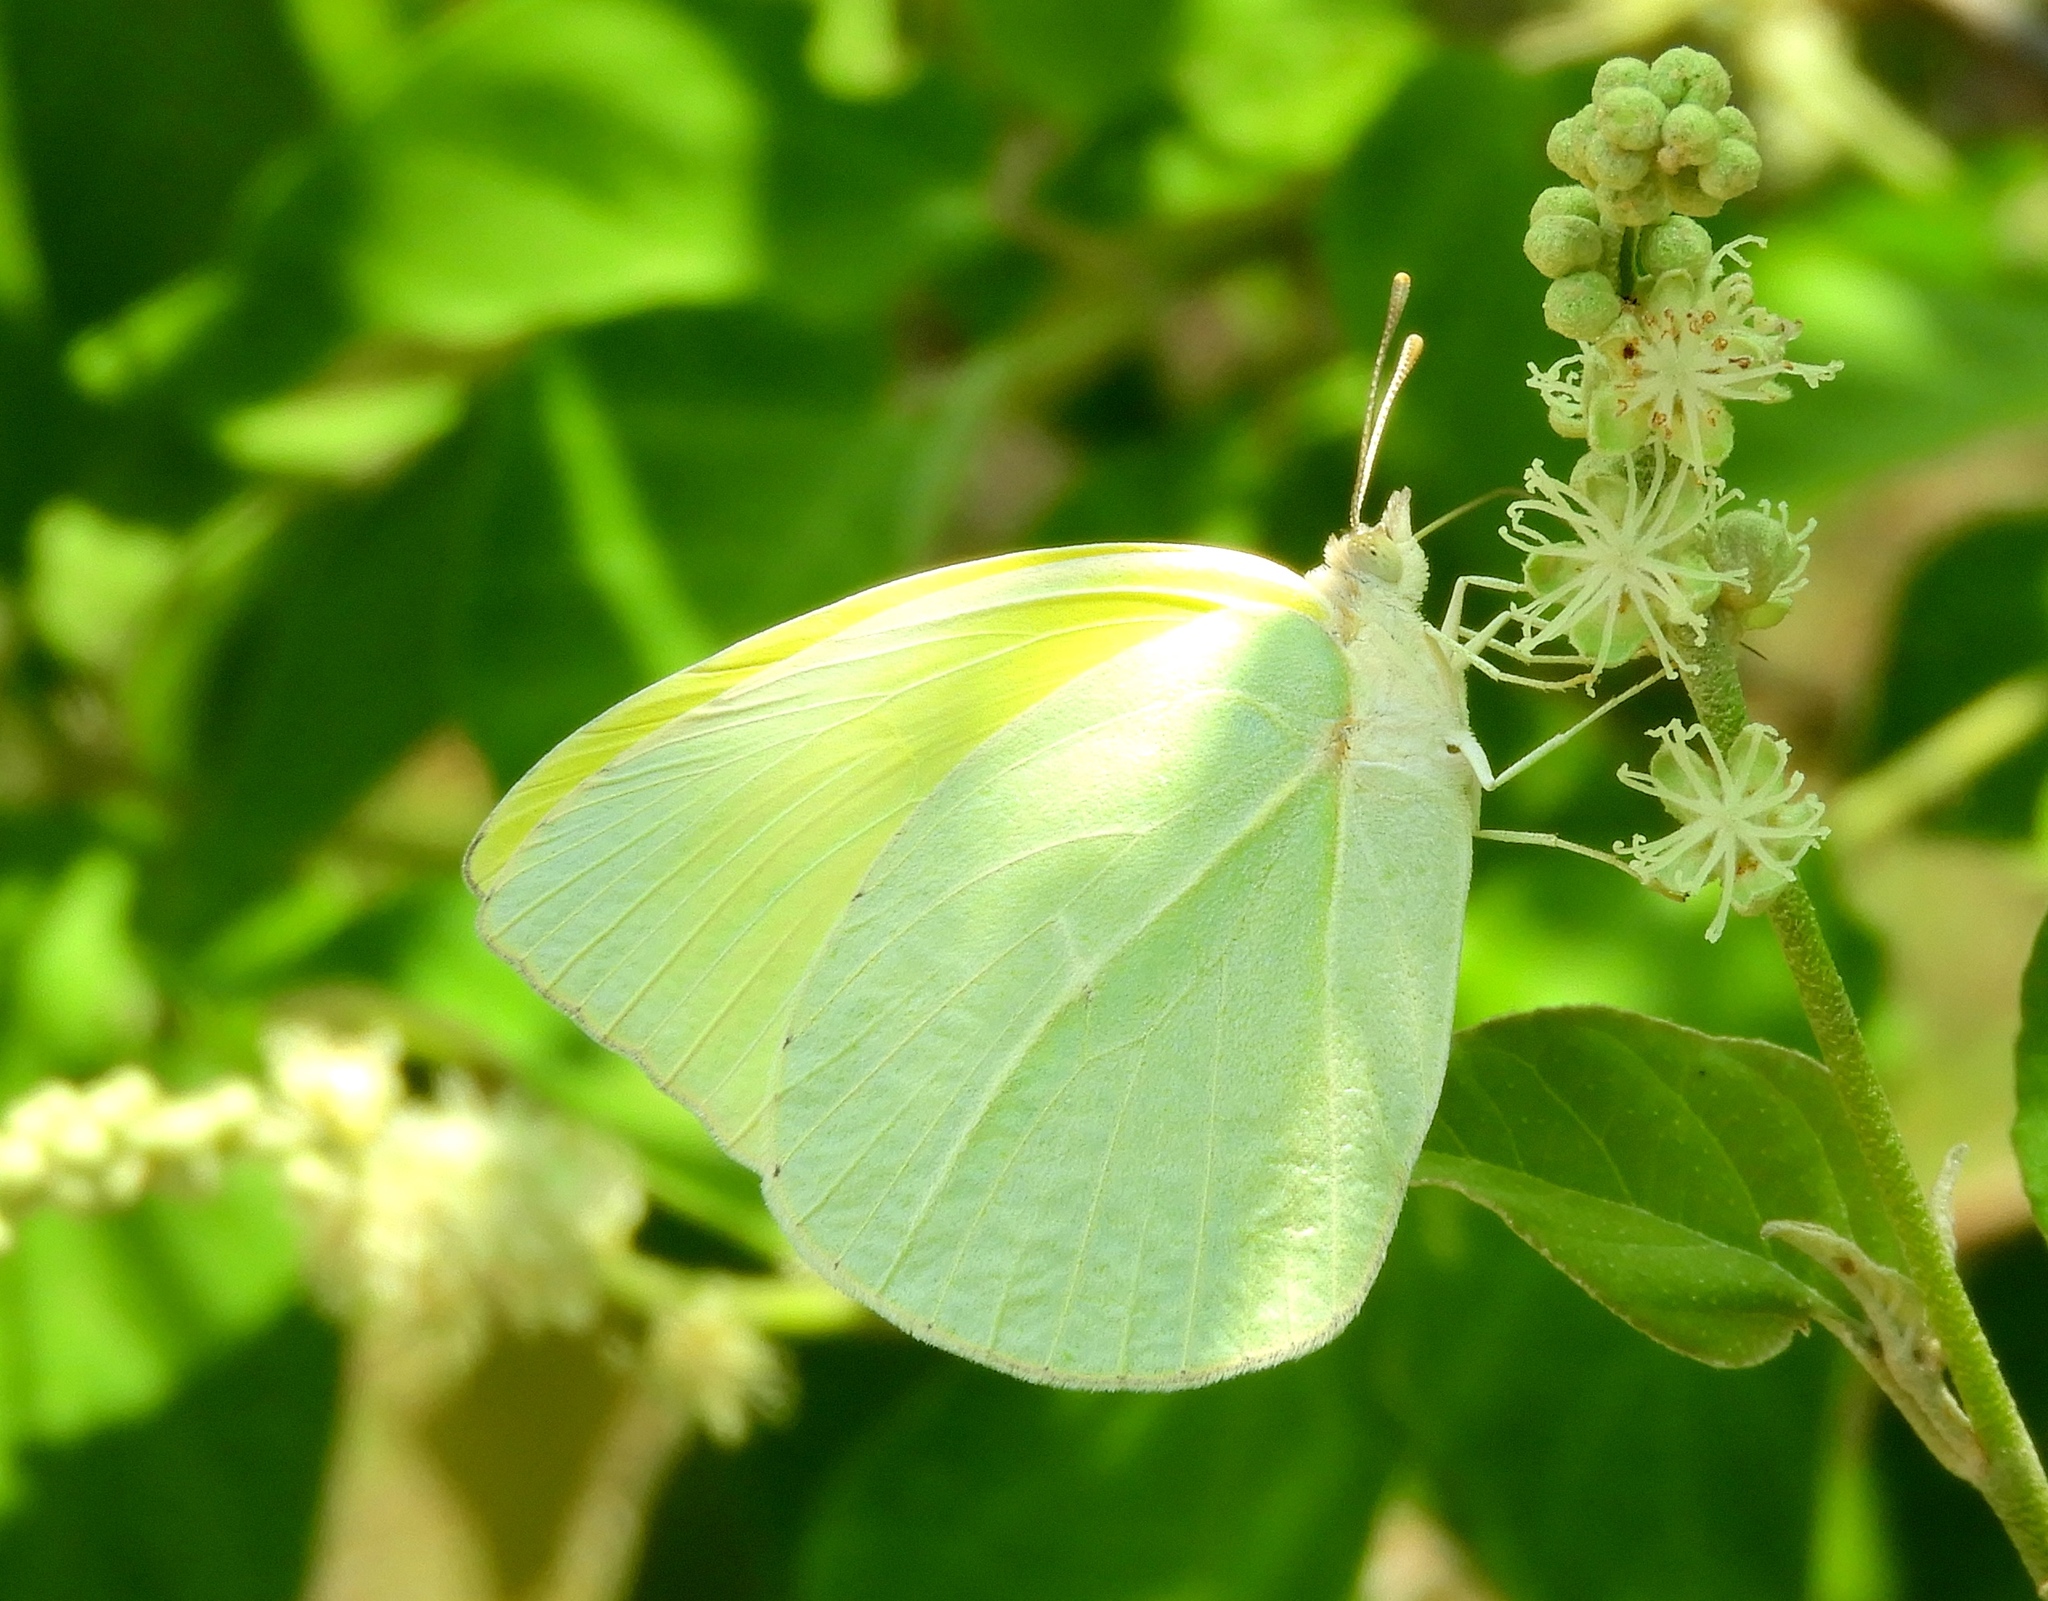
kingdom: Animalia
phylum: Arthropoda
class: Insecta
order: Lepidoptera
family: Pieridae
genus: Kricogonia
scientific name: Kricogonia lyside
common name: Guayacan sulphur,
